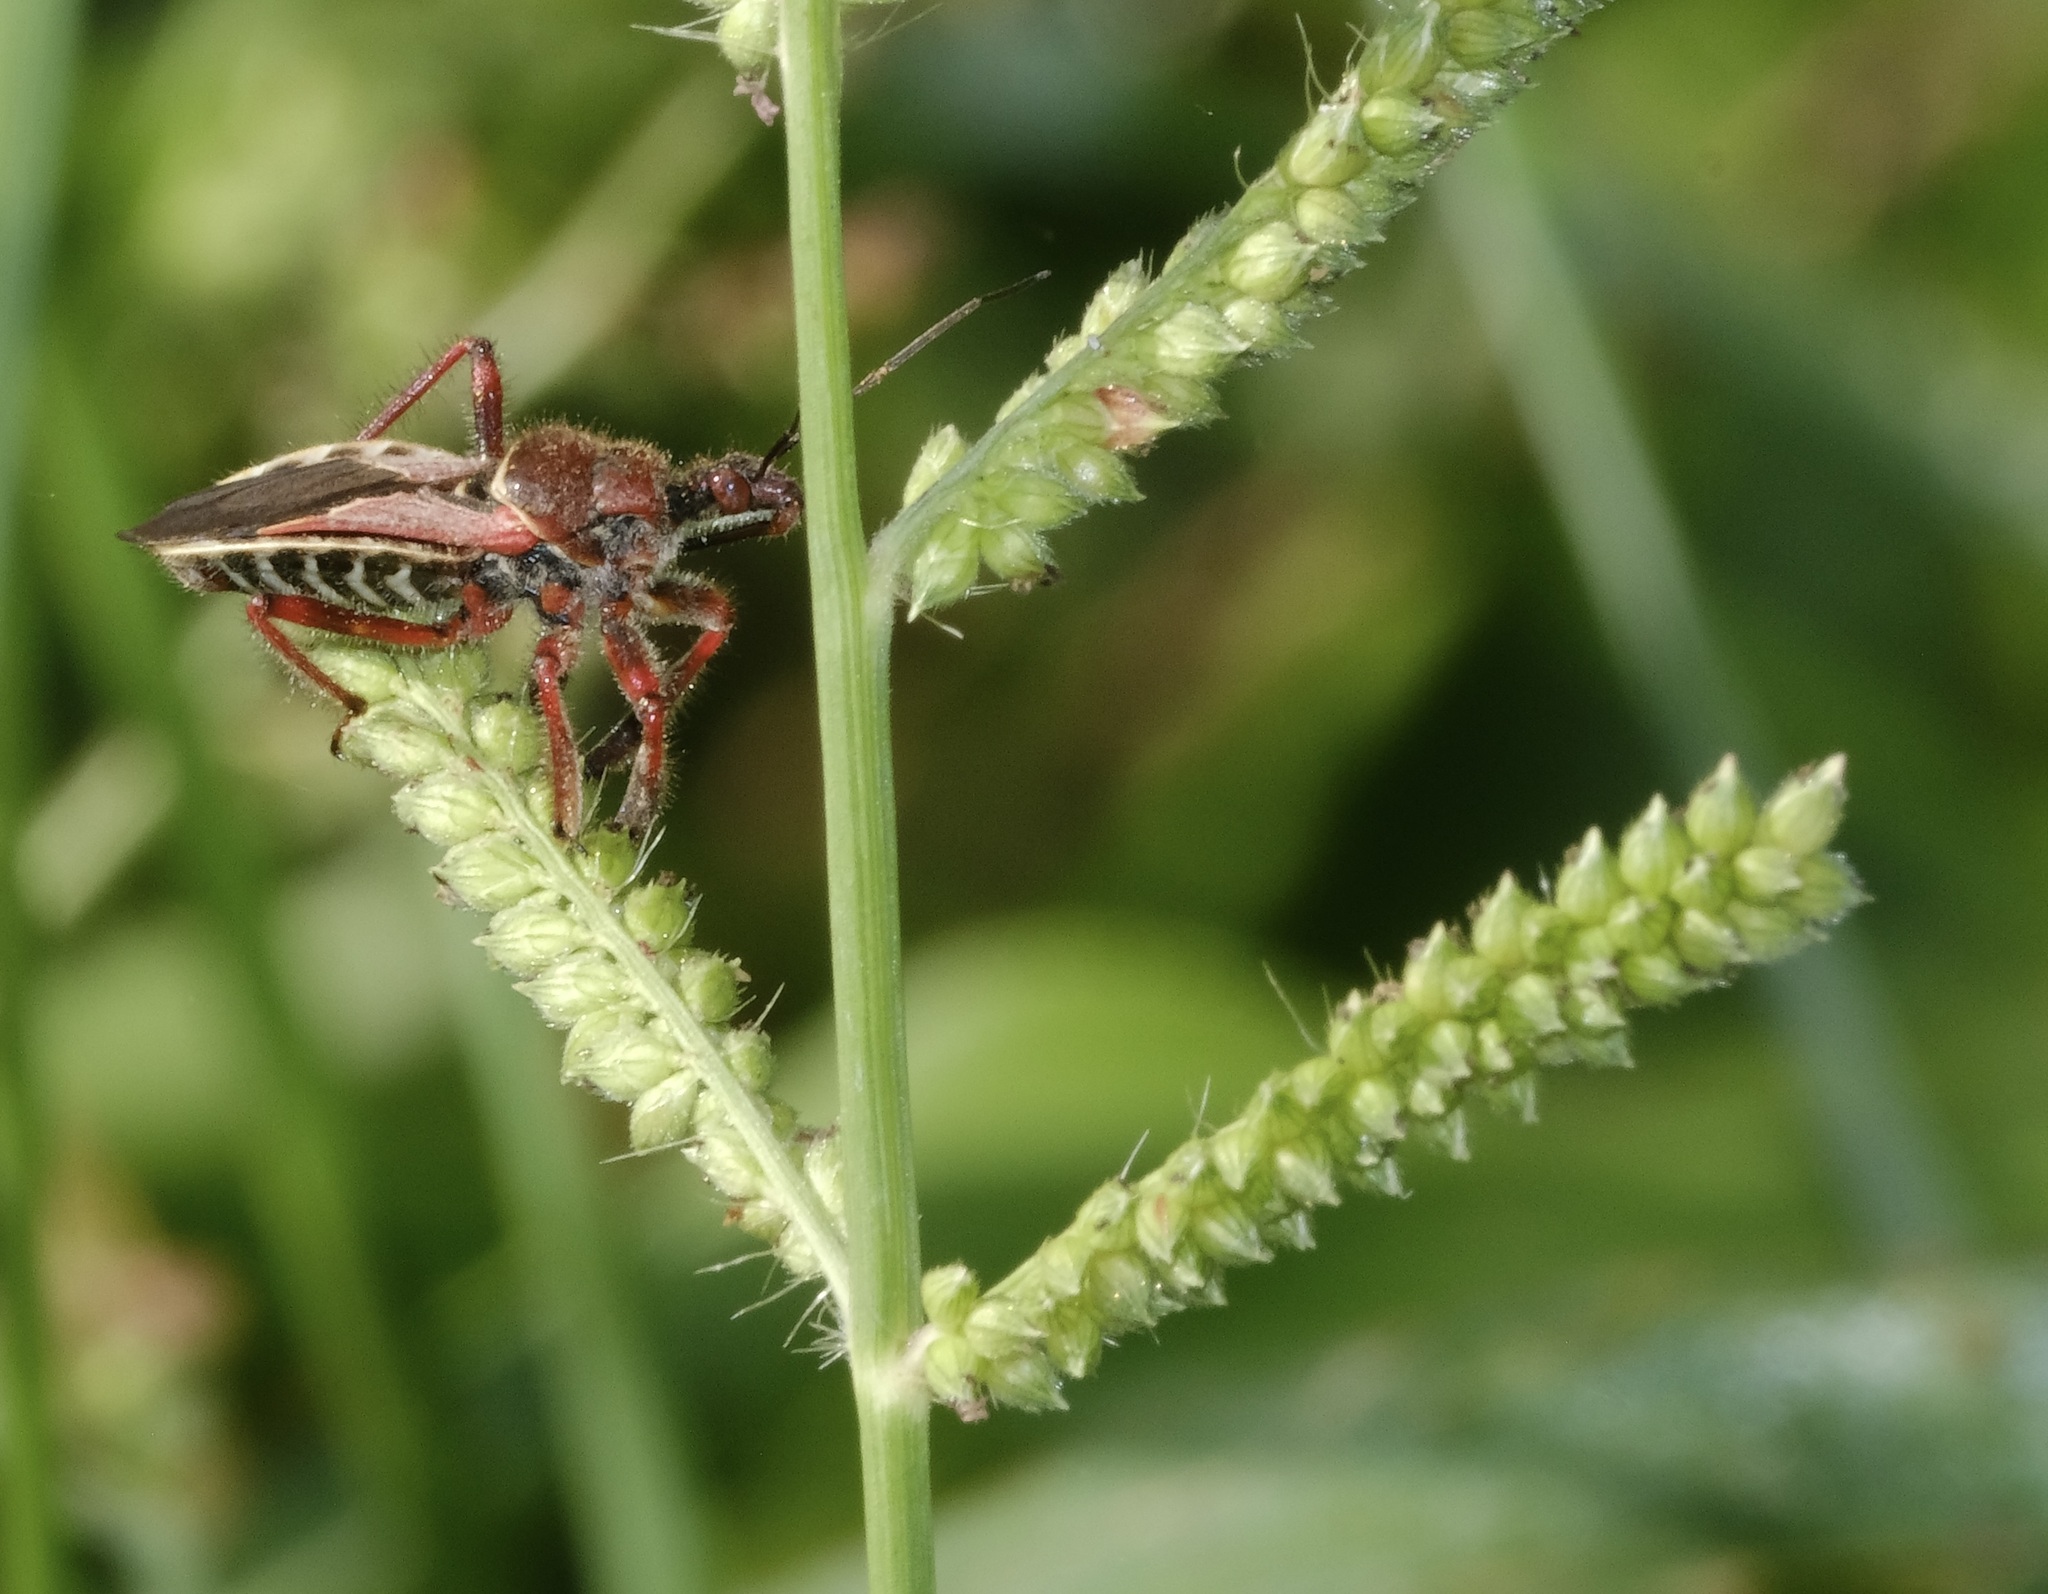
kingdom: Animalia
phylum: Arthropoda
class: Insecta
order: Hemiptera
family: Reduviidae
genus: Apiomerus
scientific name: Apiomerus spissipes
